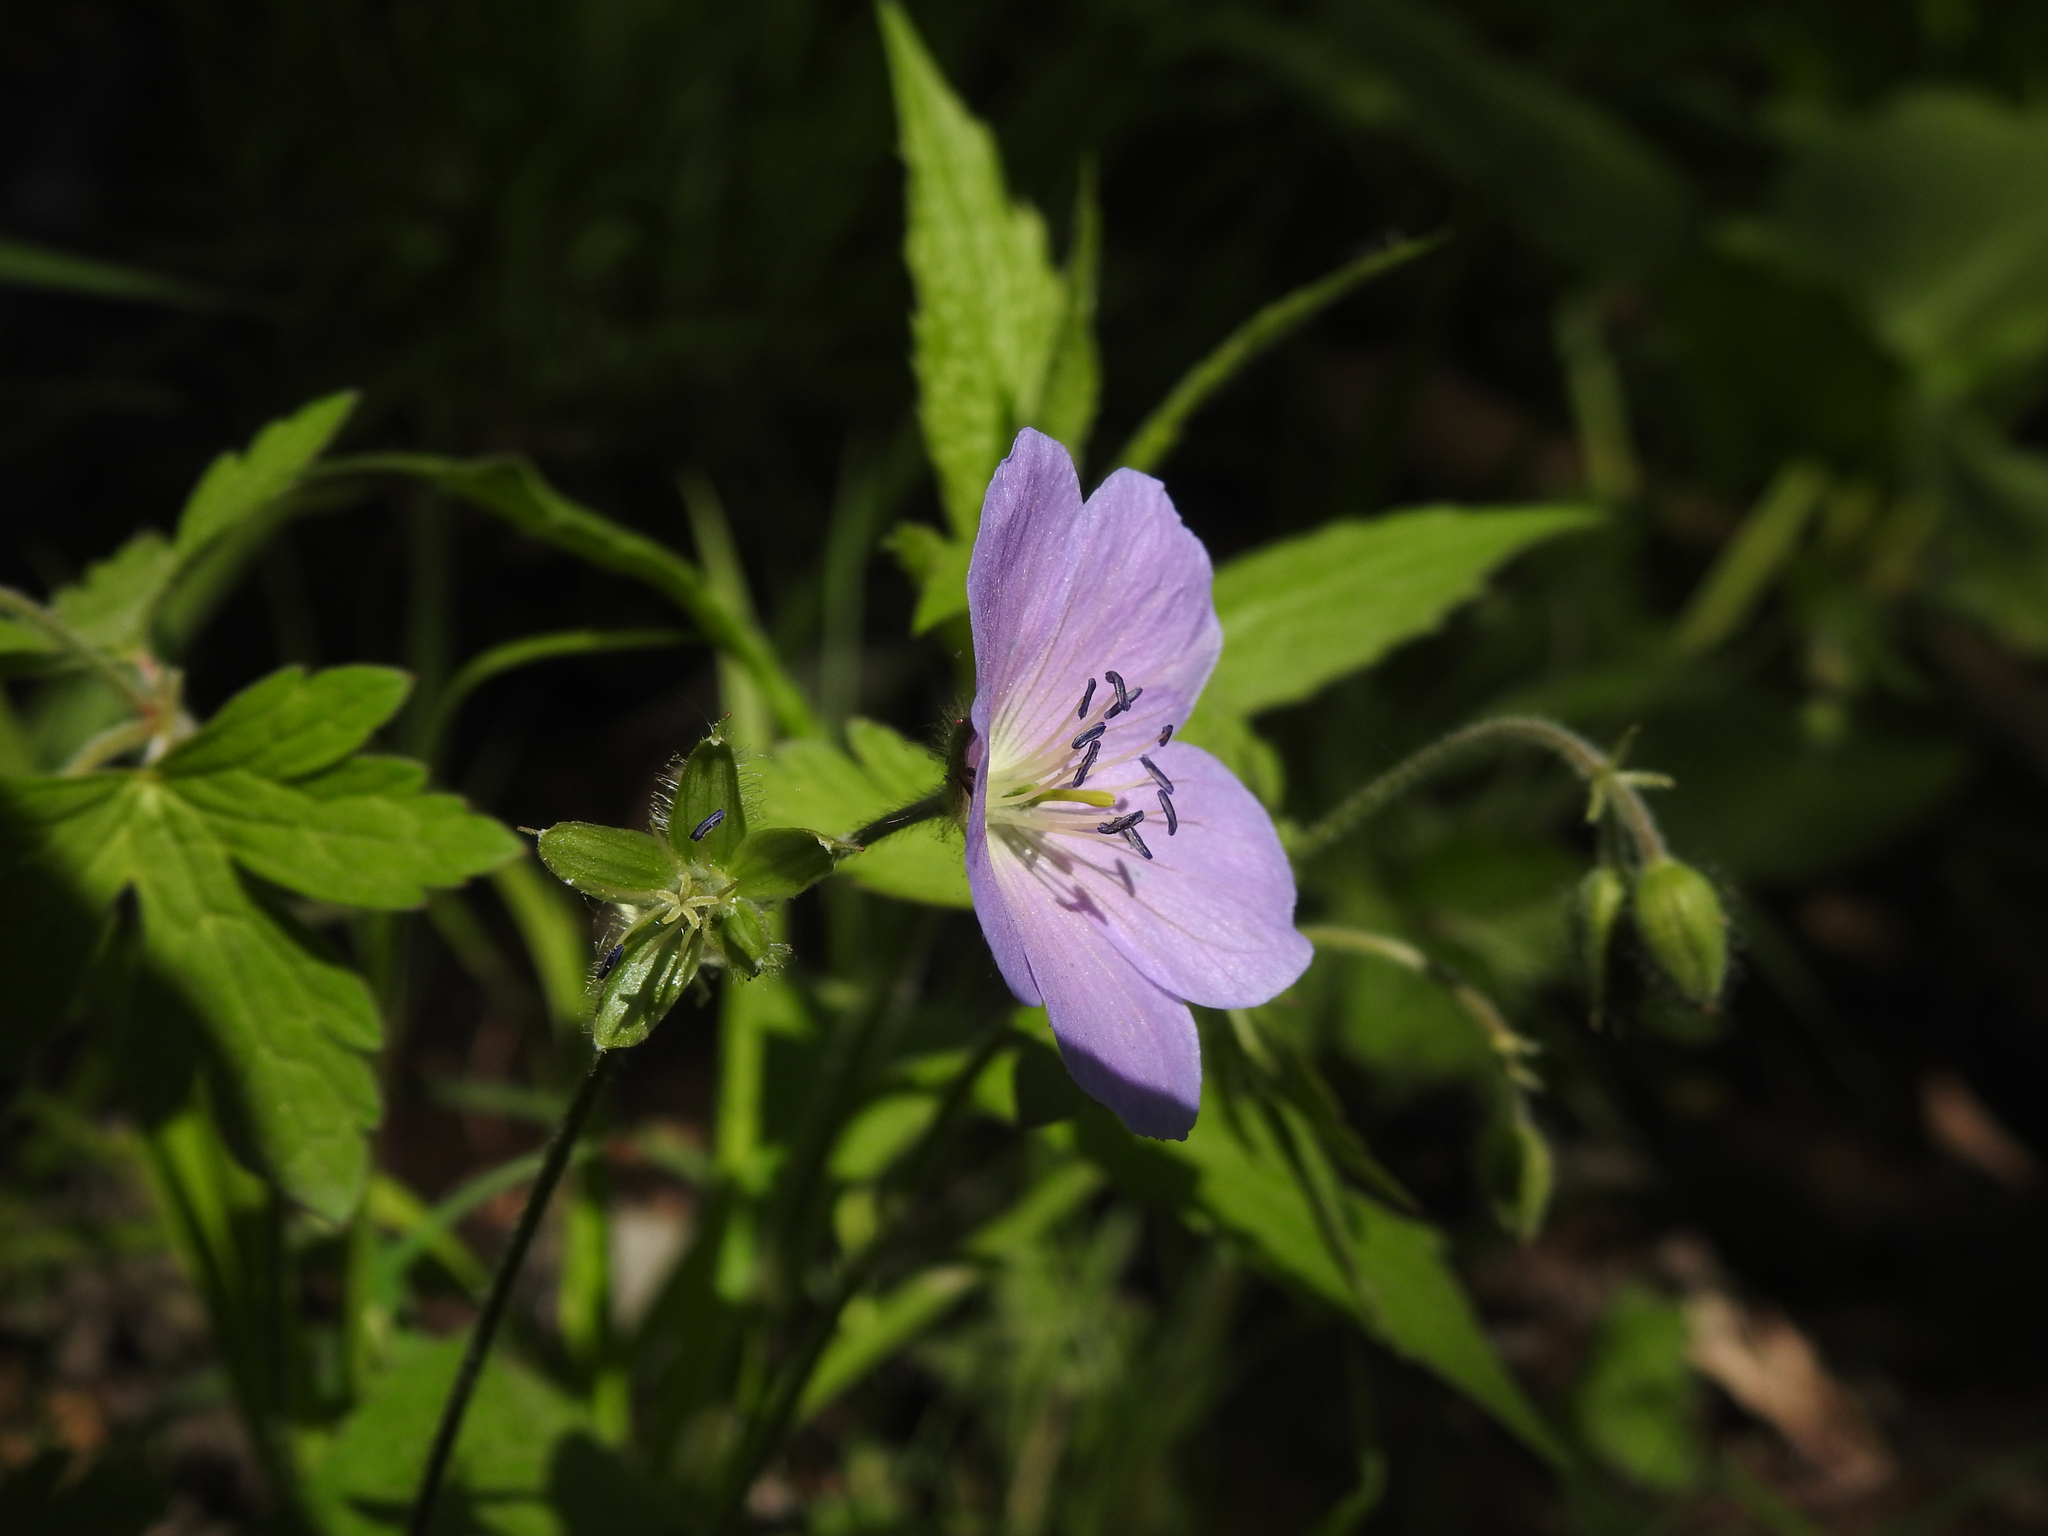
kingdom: Plantae
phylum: Tracheophyta
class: Magnoliopsida
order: Geraniales
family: Geraniaceae
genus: Geranium
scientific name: Geranium maculatum
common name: Spotted geranium
